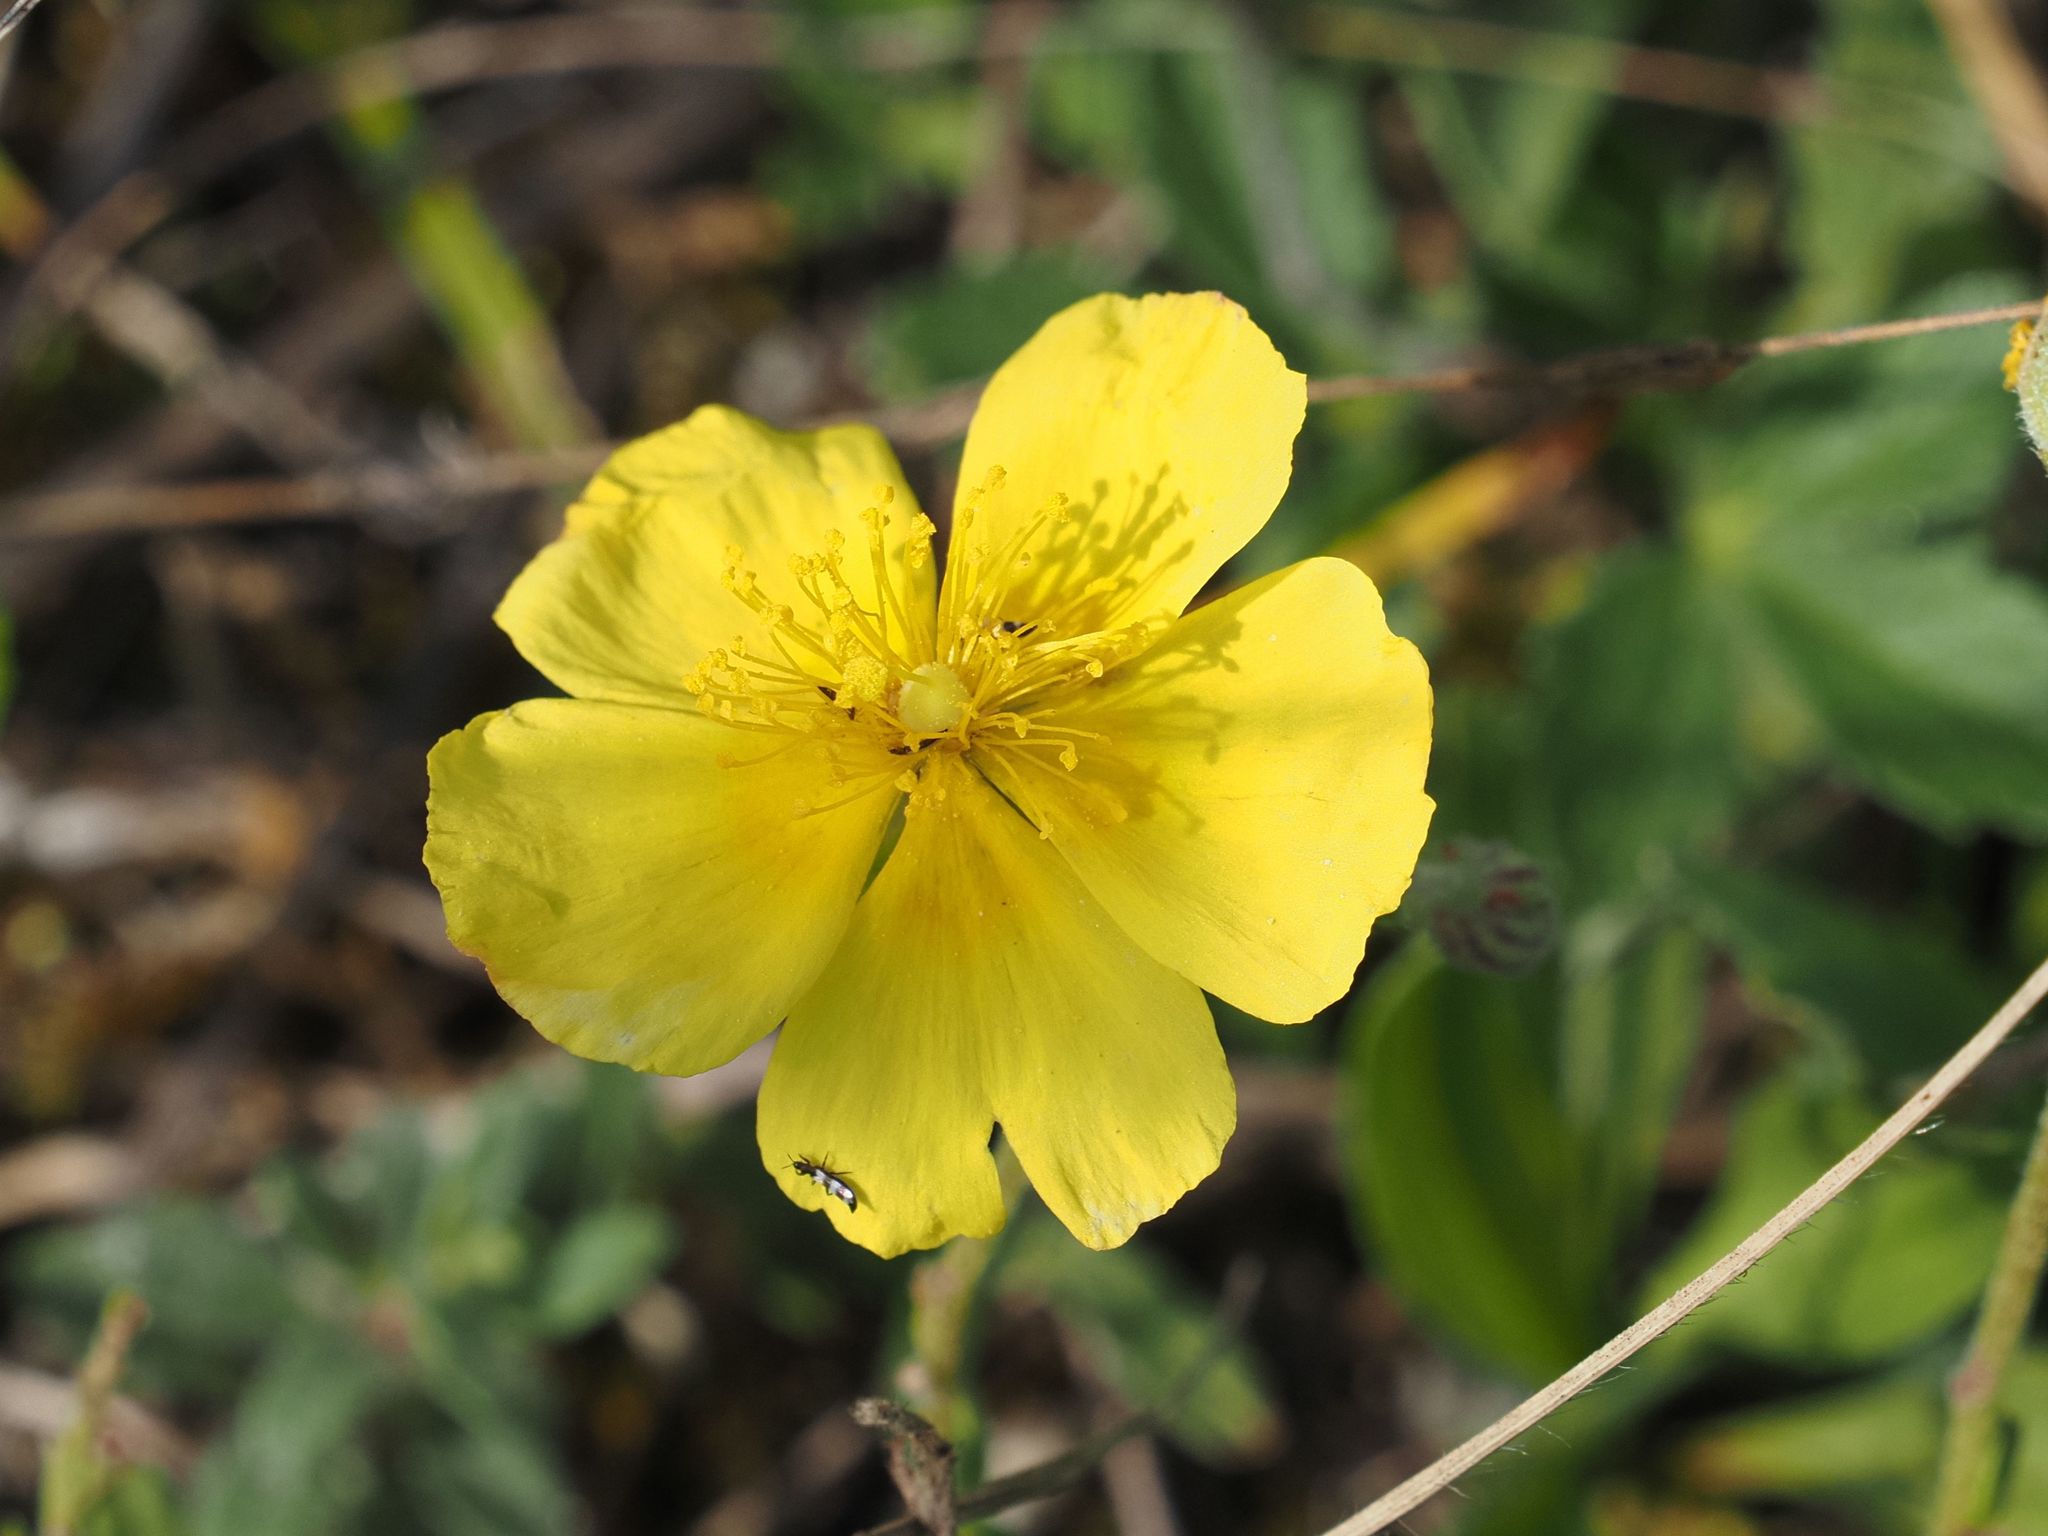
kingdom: Plantae
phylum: Tracheophyta
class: Magnoliopsida
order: Malvales
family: Cistaceae
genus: Helianthemum
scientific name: Helianthemum nummularium
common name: Common rock-rose
